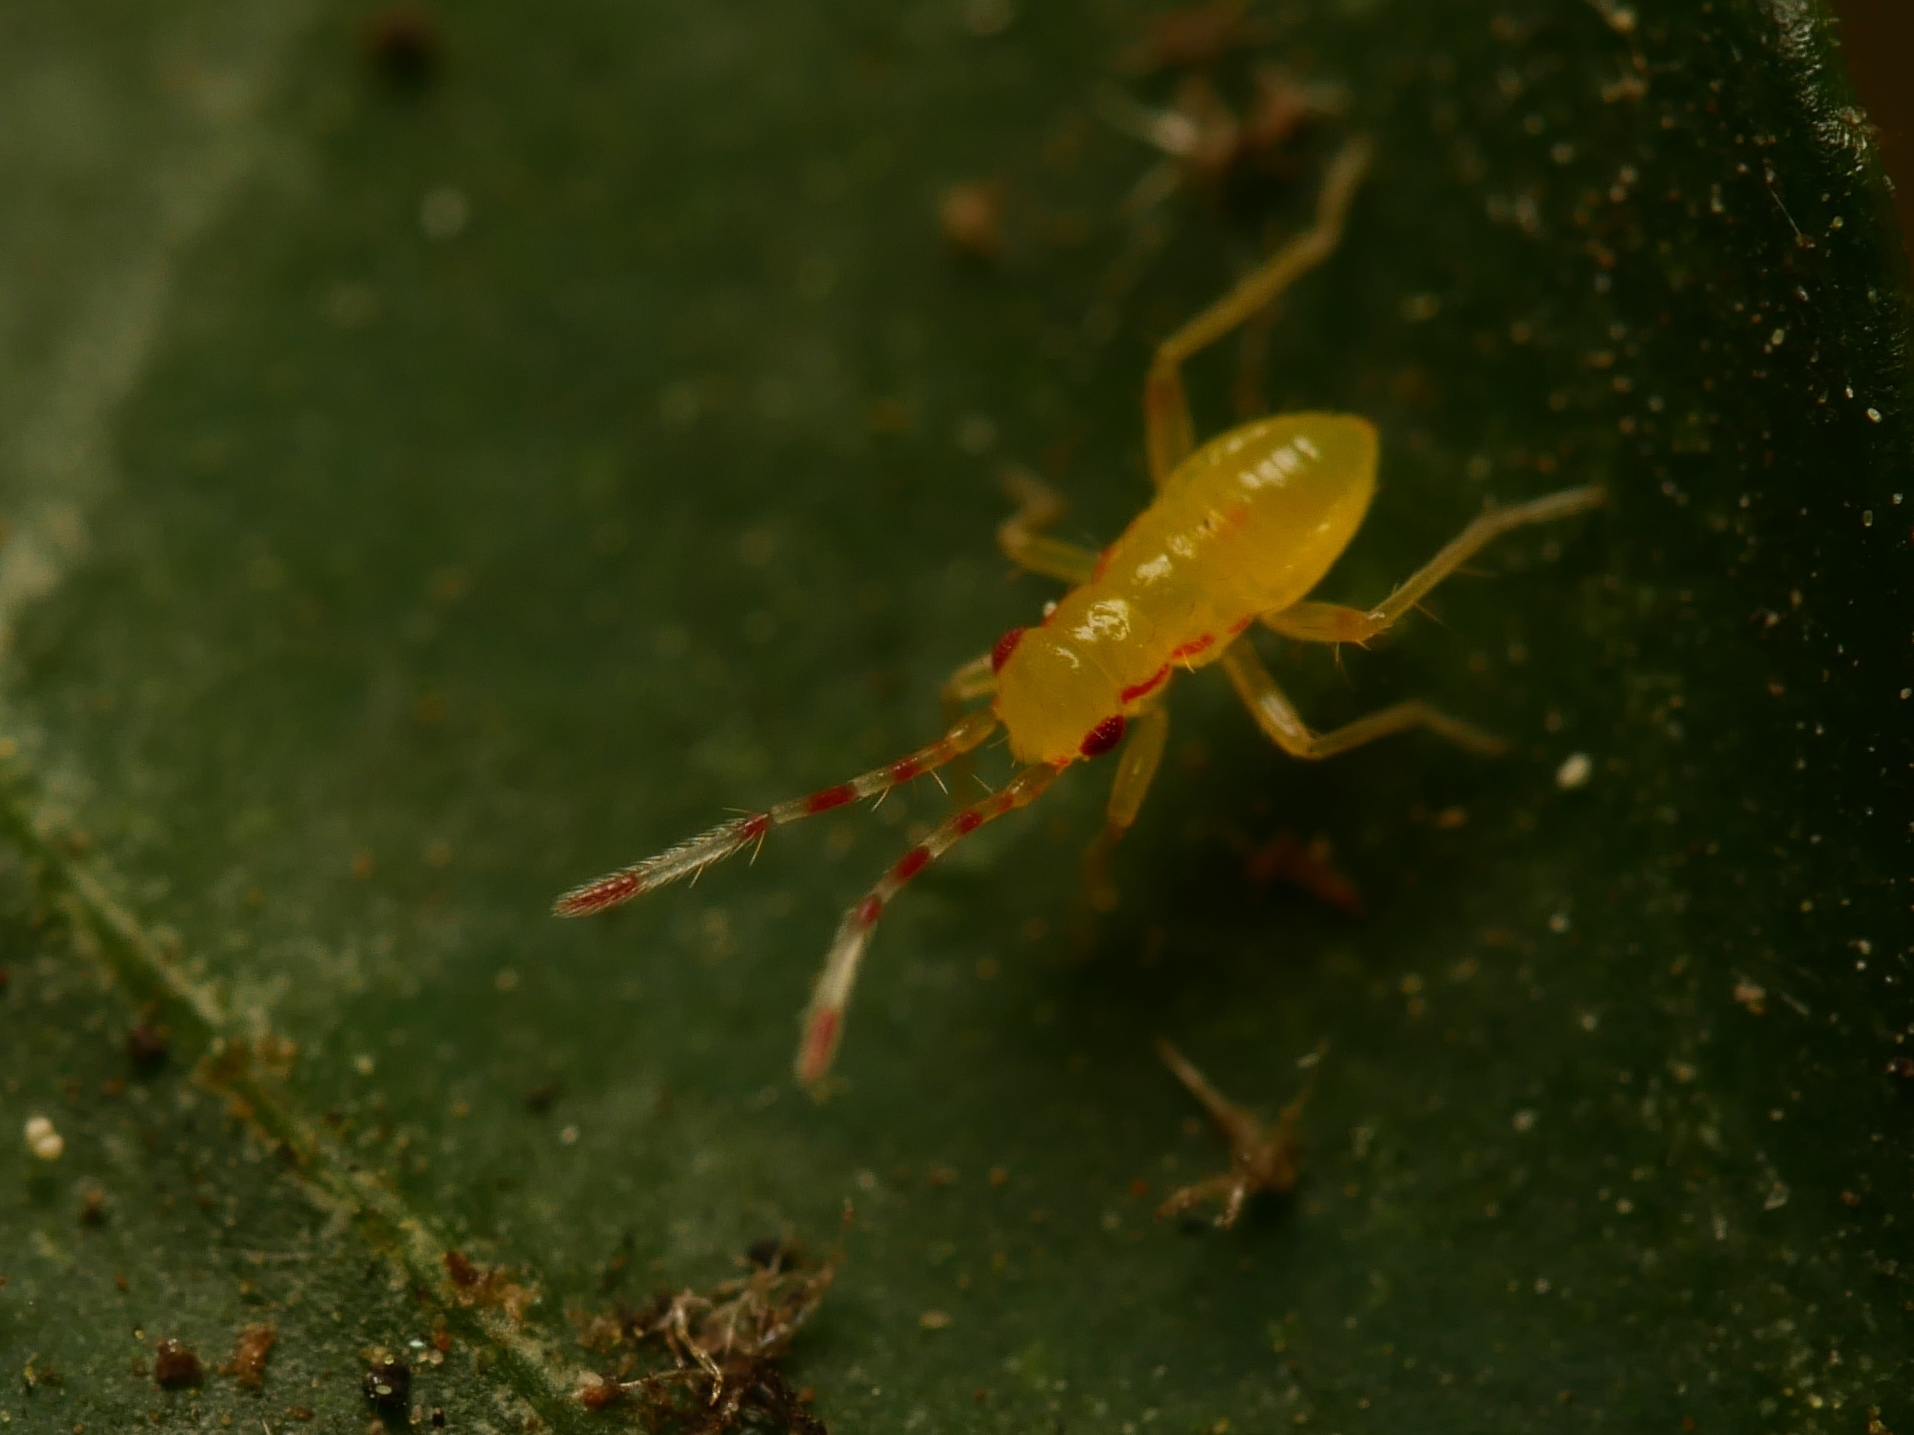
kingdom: Animalia
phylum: Arthropoda
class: Insecta
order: Hemiptera
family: Miridae
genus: Campyloneura
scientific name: Campyloneura virgula
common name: Predatory bug
